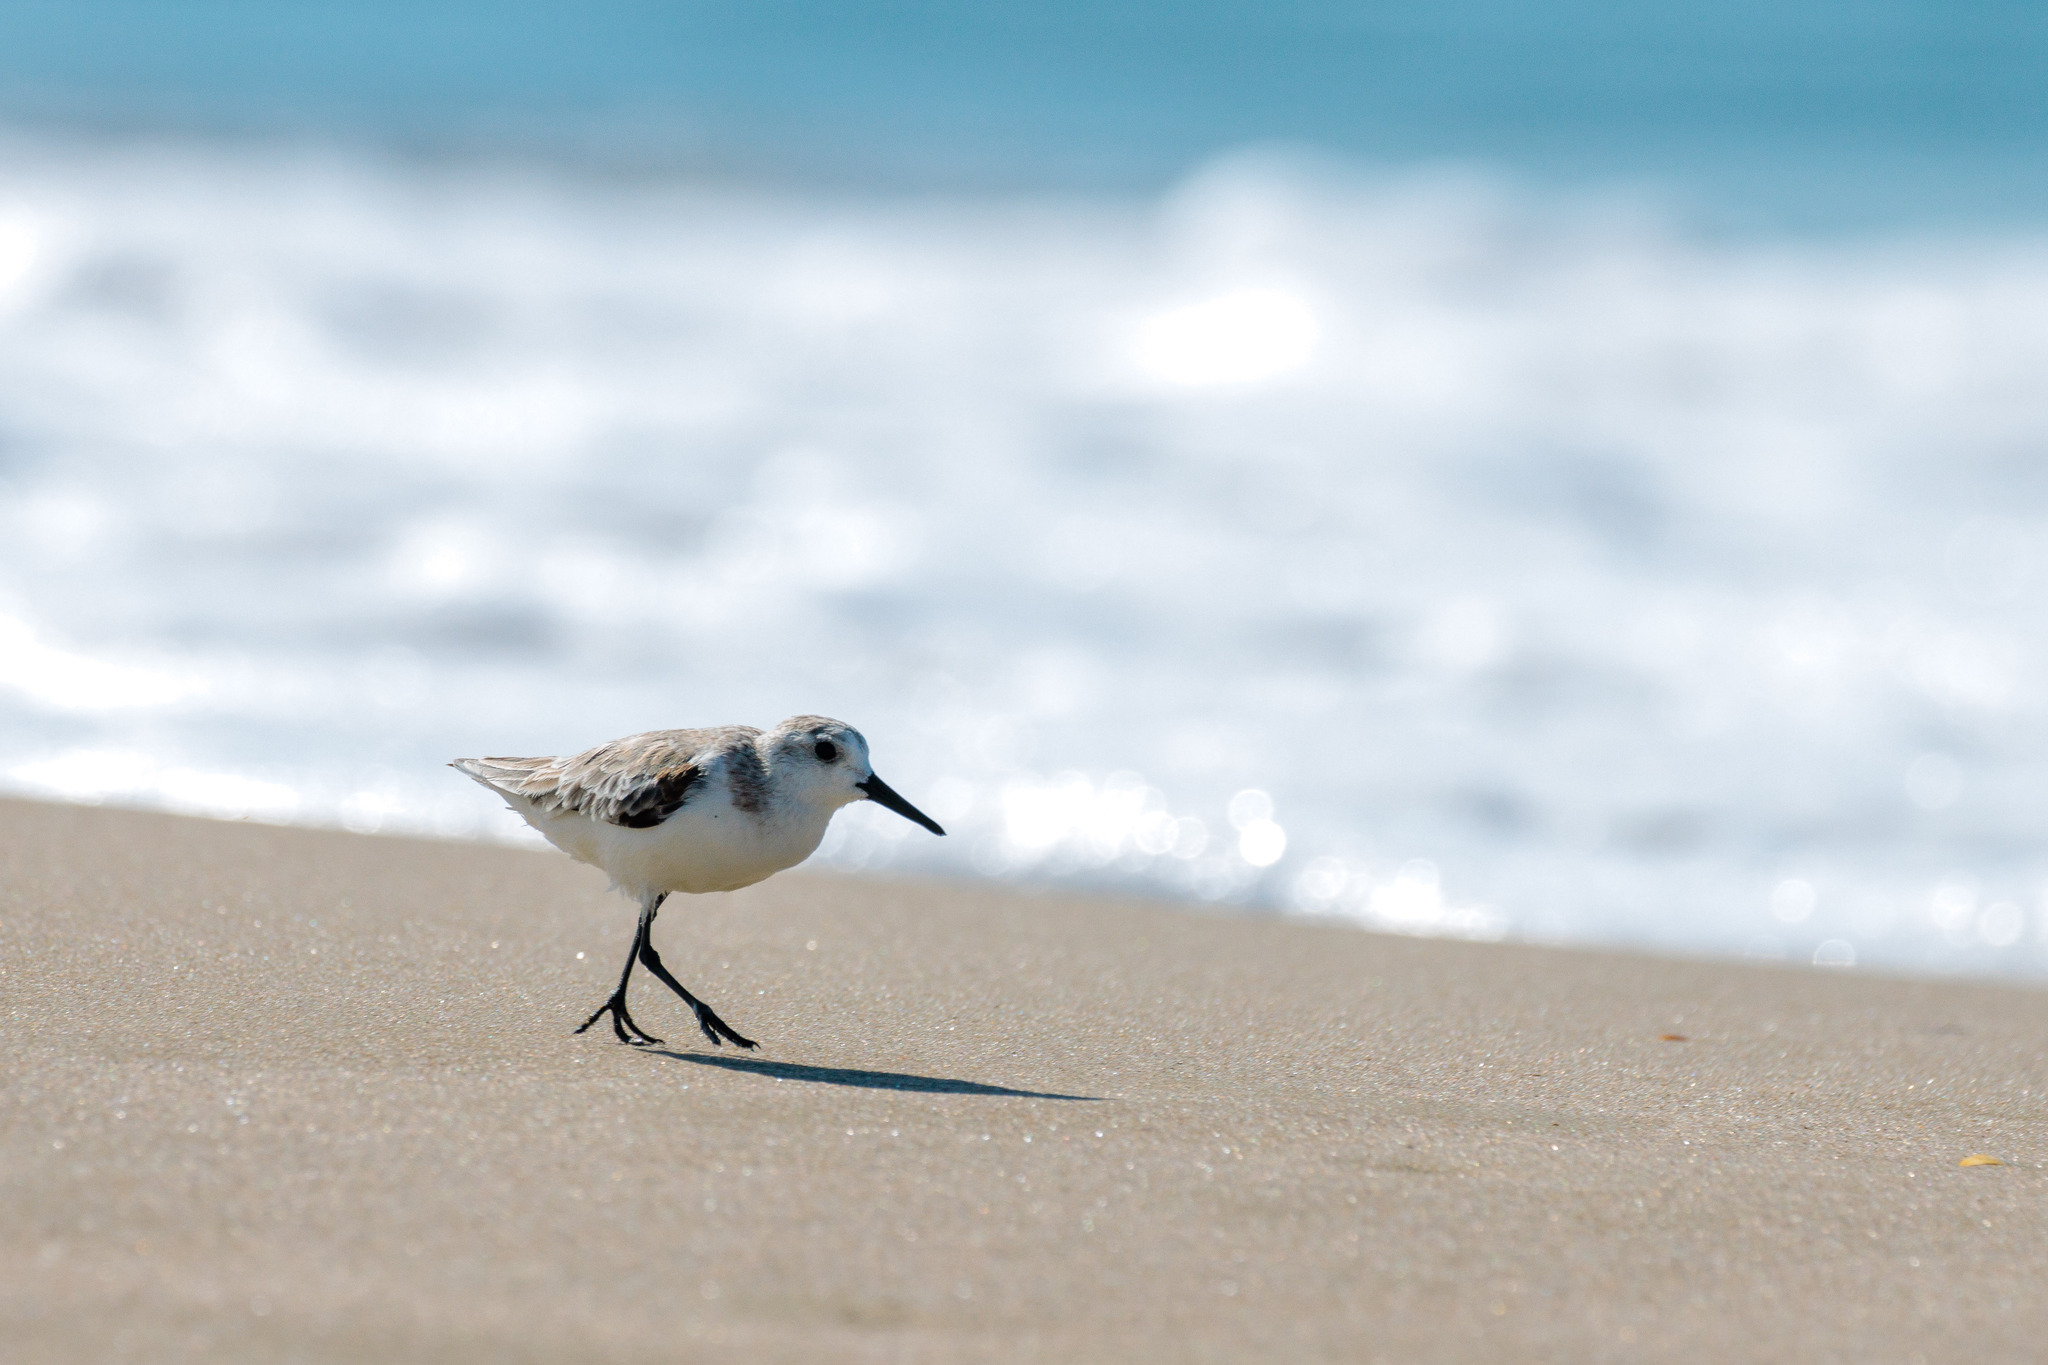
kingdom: Animalia
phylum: Chordata
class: Aves
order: Charadriiformes
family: Scolopacidae
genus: Calidris
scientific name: Calidris alba
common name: Sanderling
